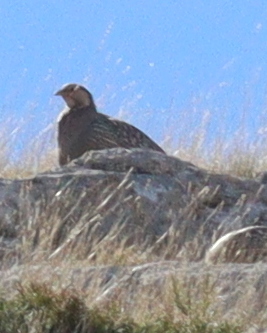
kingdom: Animalia
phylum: Chordata
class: Aves
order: Galliformes
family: Phasianidae
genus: Tetraogallus
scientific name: Tetraogallus caspius
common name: Caspian snowcock
